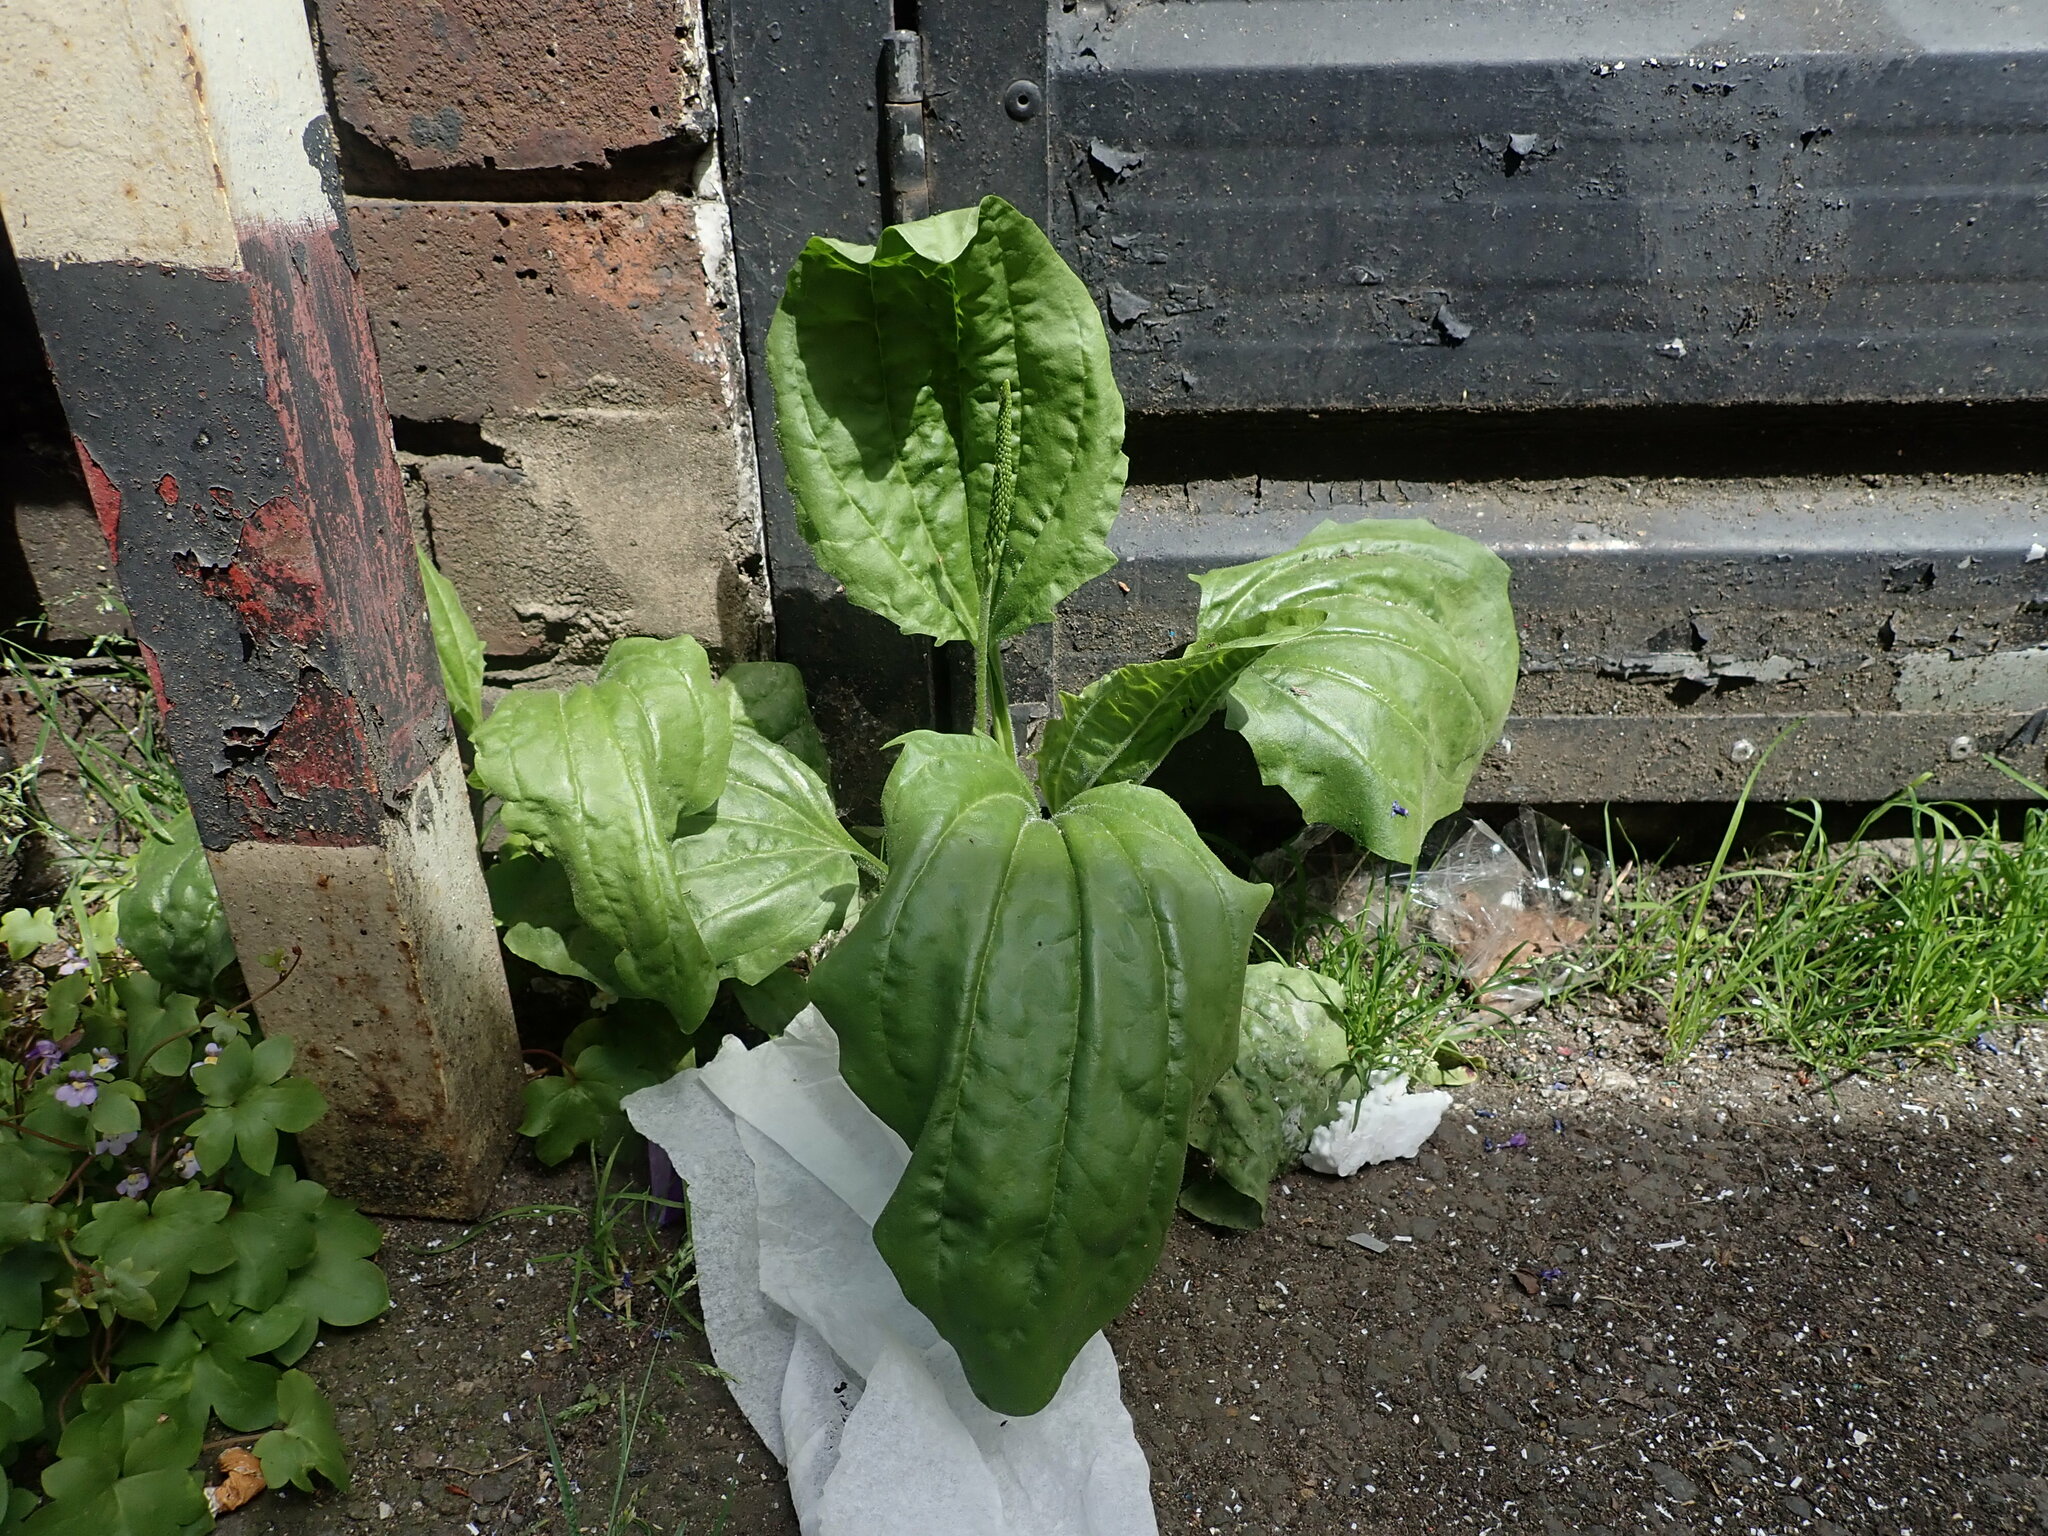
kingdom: Plantae
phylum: Tracheophyta
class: Magnoliopsida
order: Lamiales
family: Plantaginaceae
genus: Plantago
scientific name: Plantago major
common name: Common plantain
